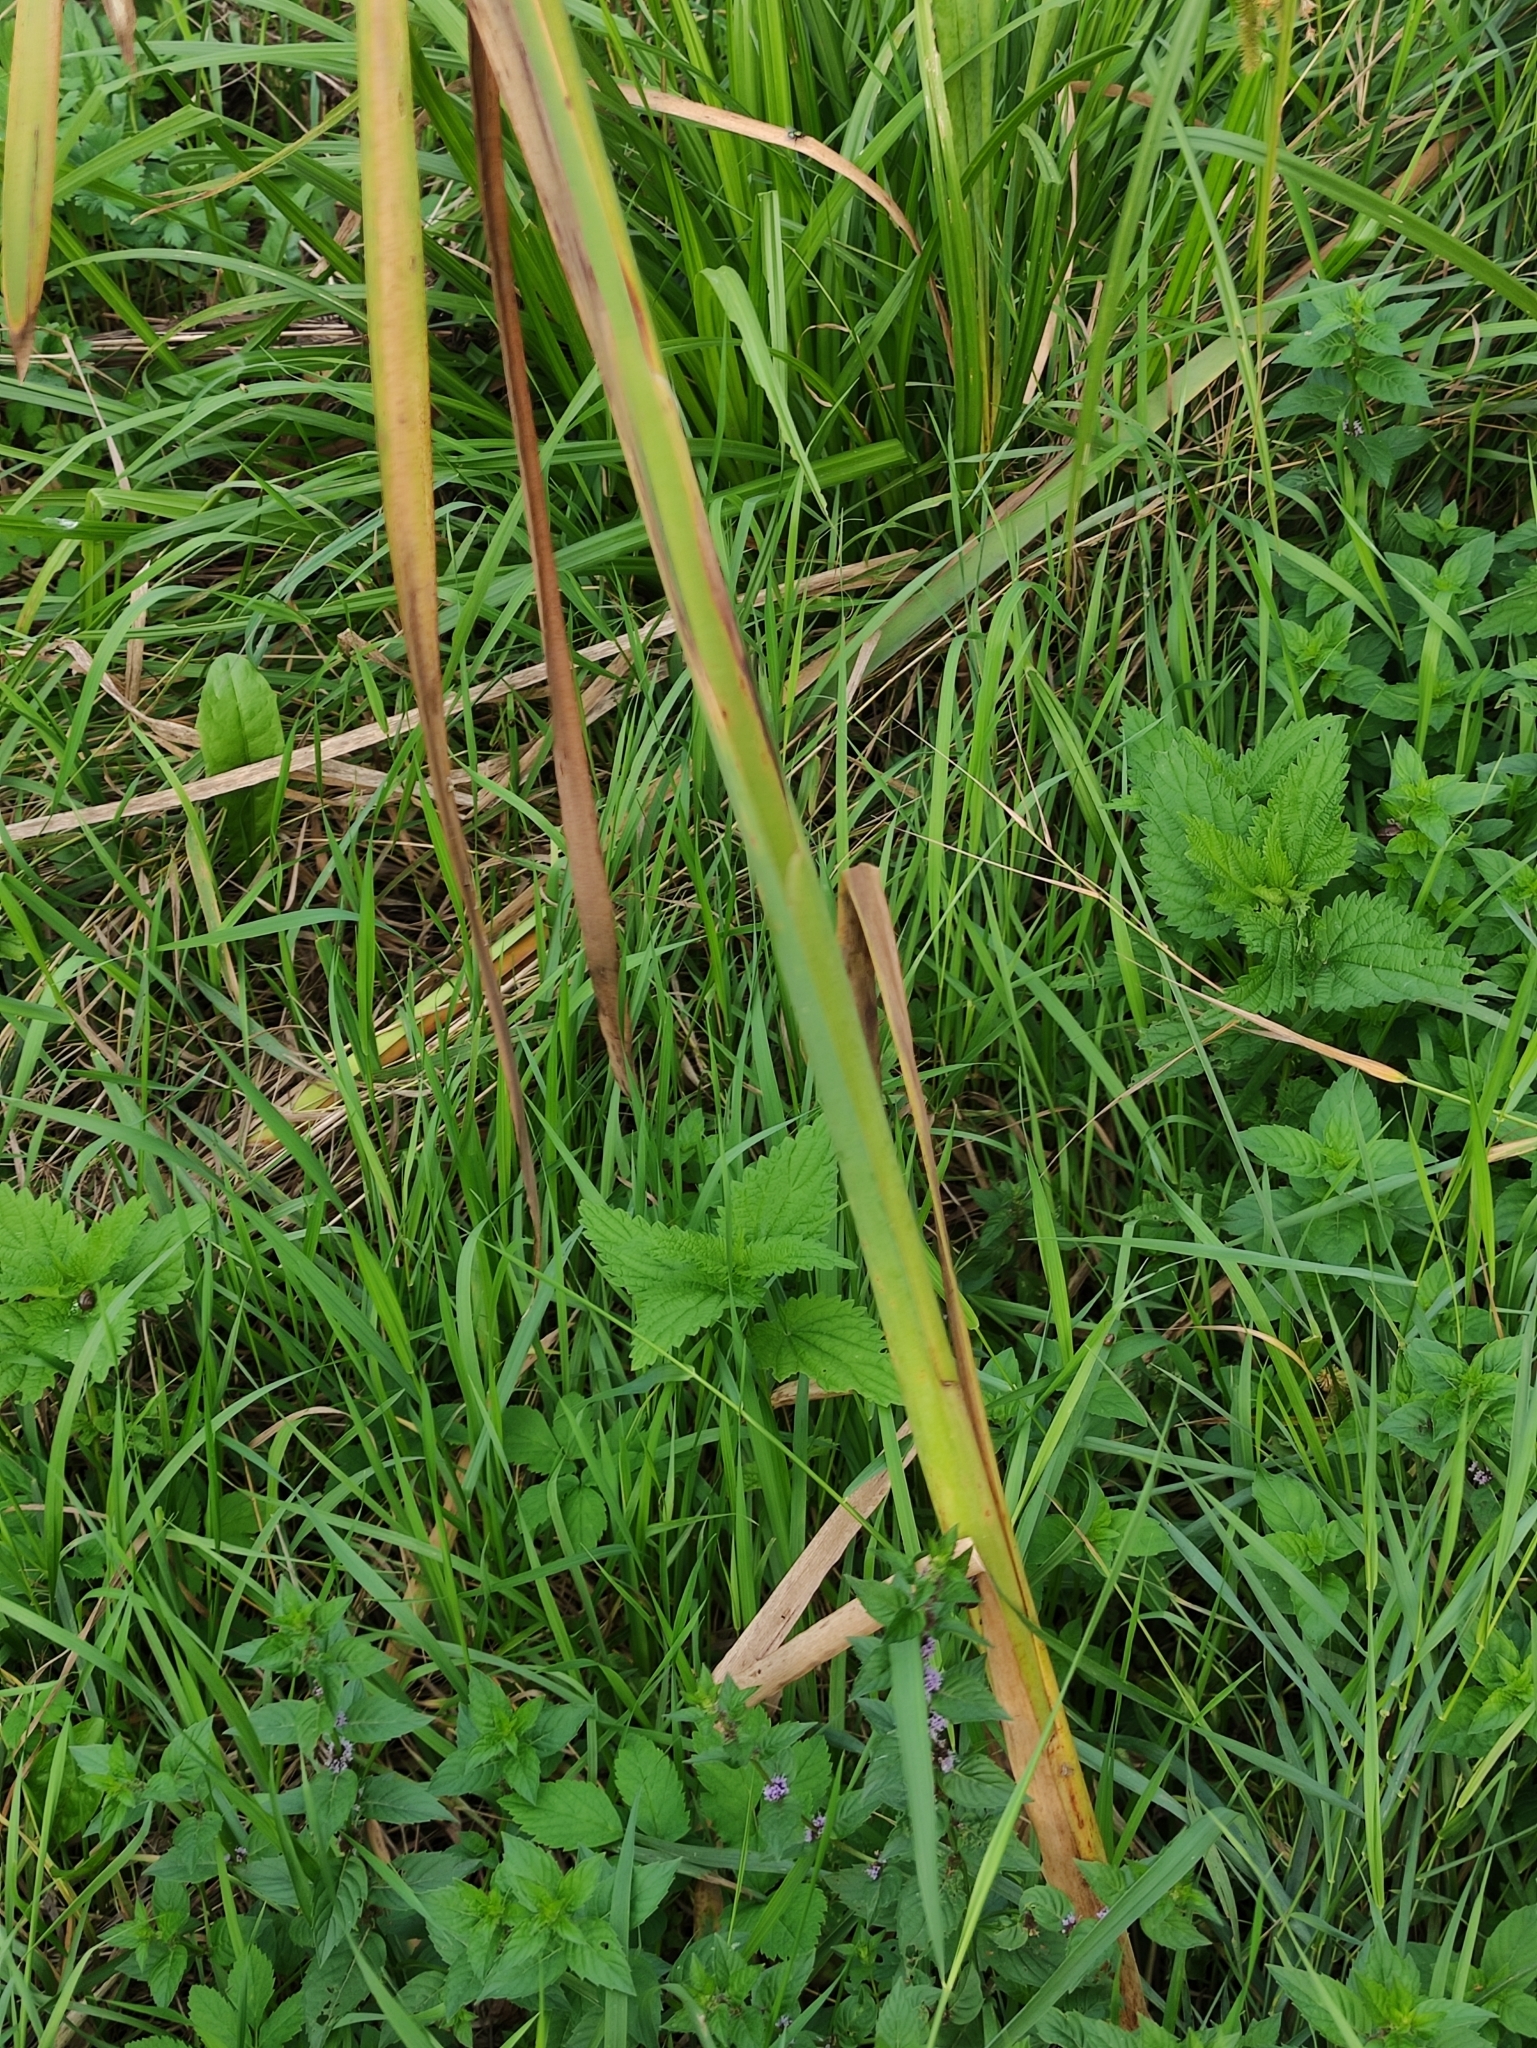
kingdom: Plantae
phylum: Tracheophyta
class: Liliopsida
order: Poales
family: Typhaceae
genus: Typha
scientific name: Typha latifolia
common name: Broadleaf cattail
